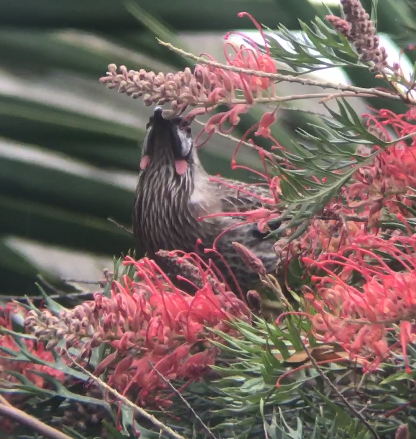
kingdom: Animalia
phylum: Chordata
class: Aves
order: Passeriformes
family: Meliphagidae
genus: Anthochaera
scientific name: Anthochaera carunculata
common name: Red wattlebird
